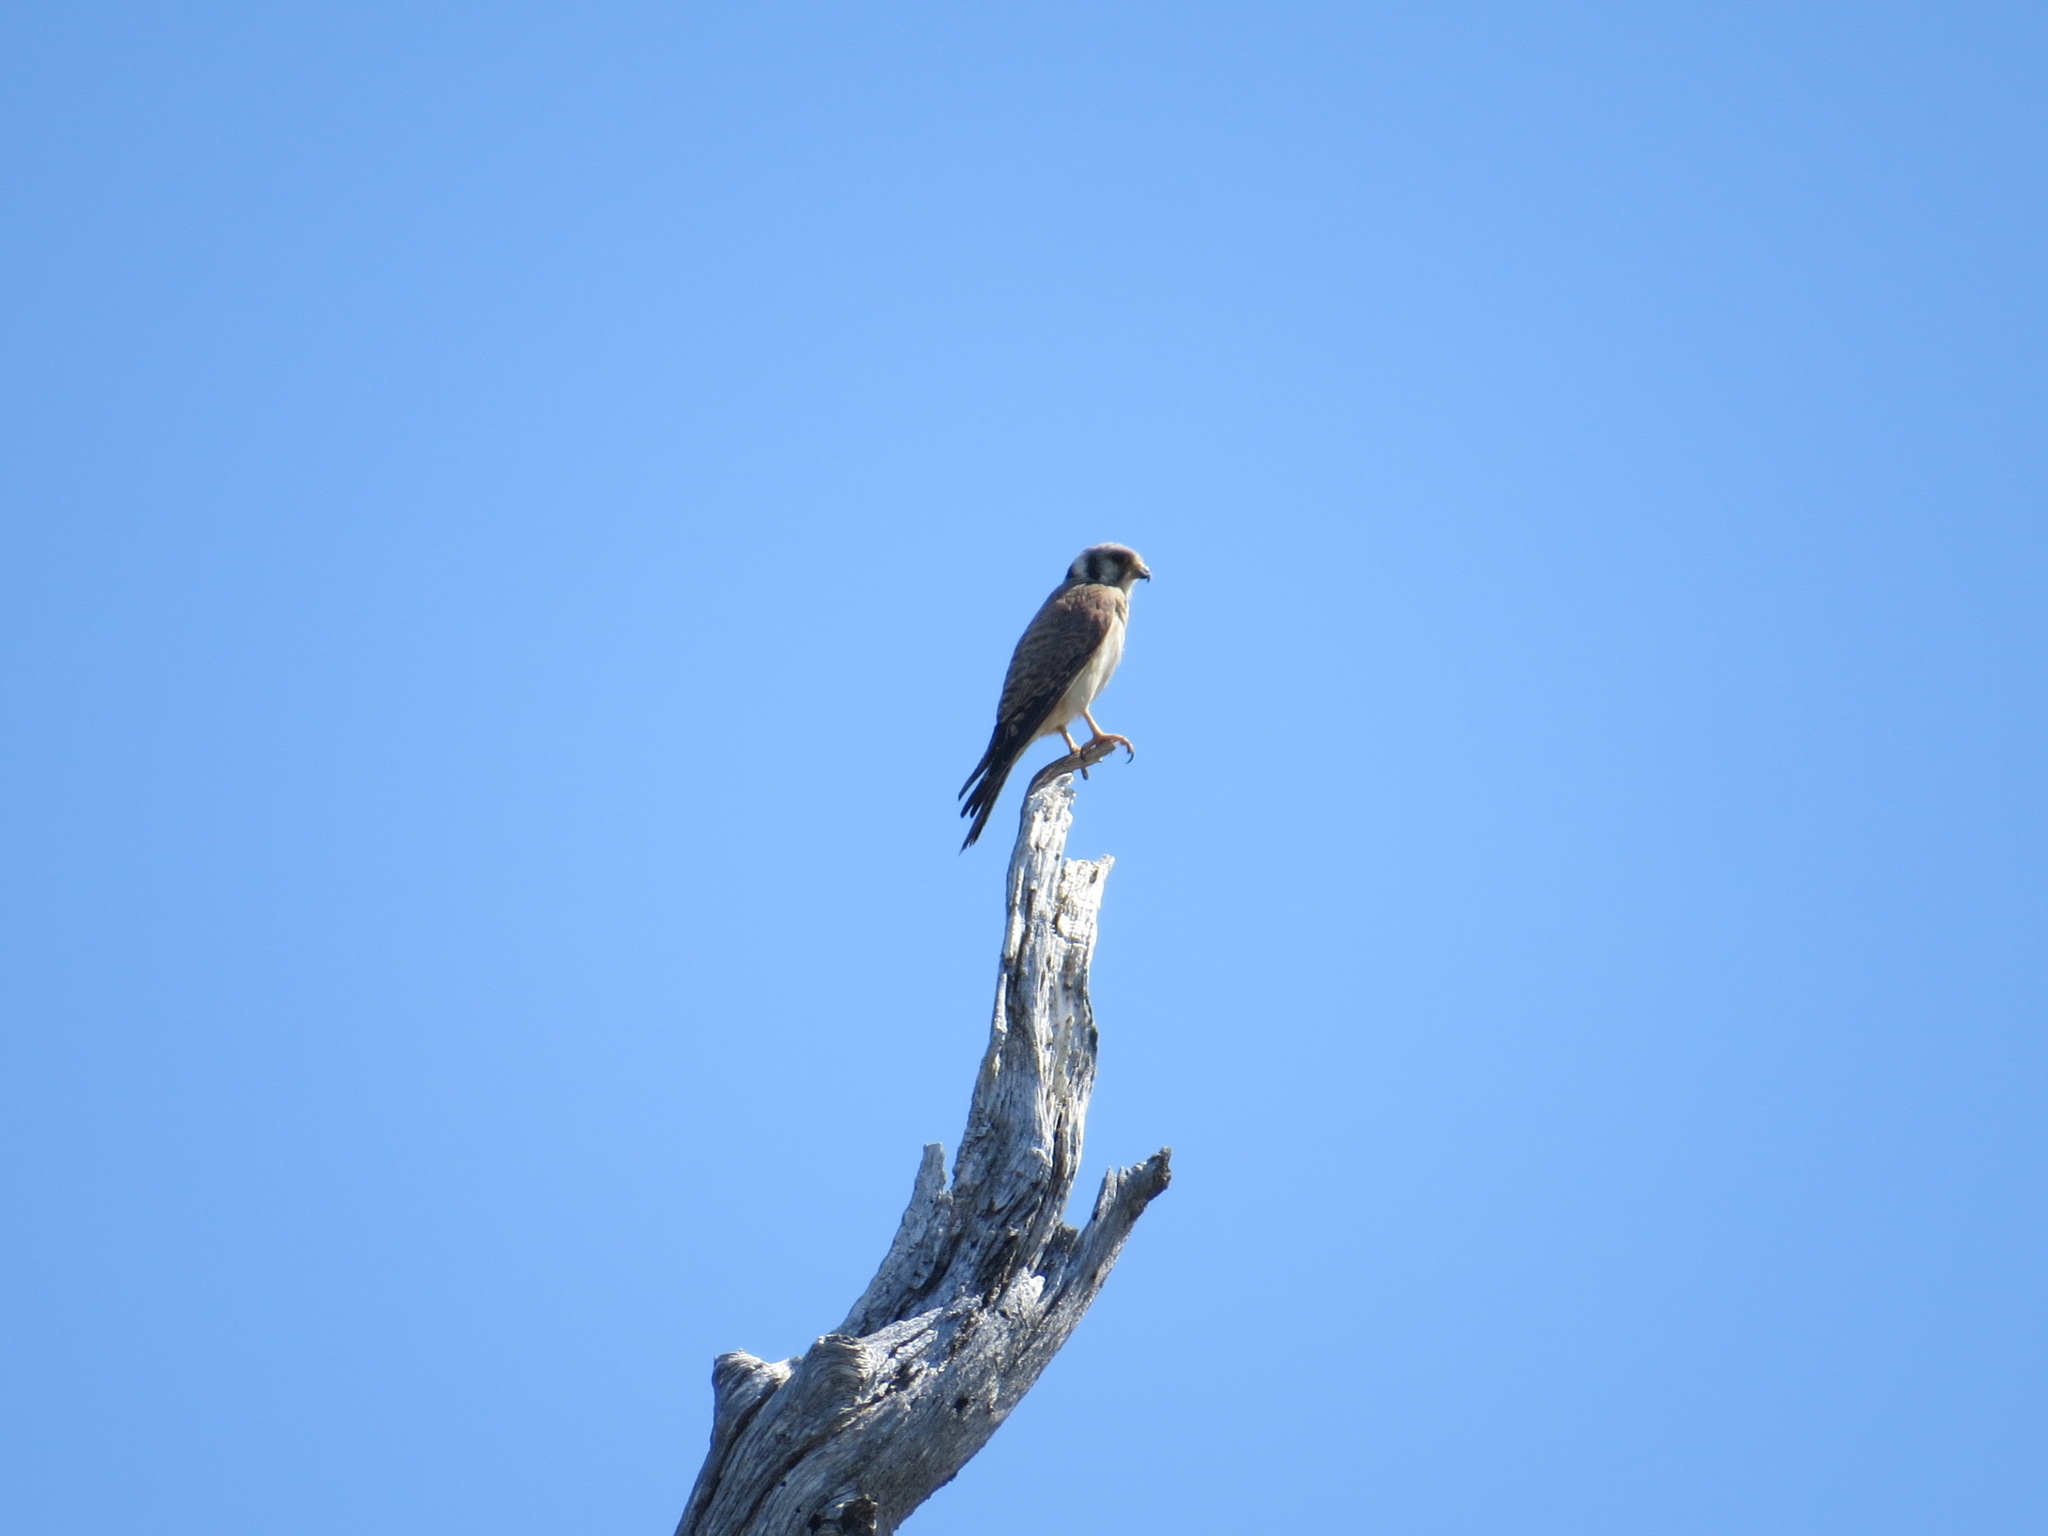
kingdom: Animalia
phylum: Chordata
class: Aves
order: Falconiformes
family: Falconidae
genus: Falco
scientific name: Falco sparverius
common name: American kestrel
